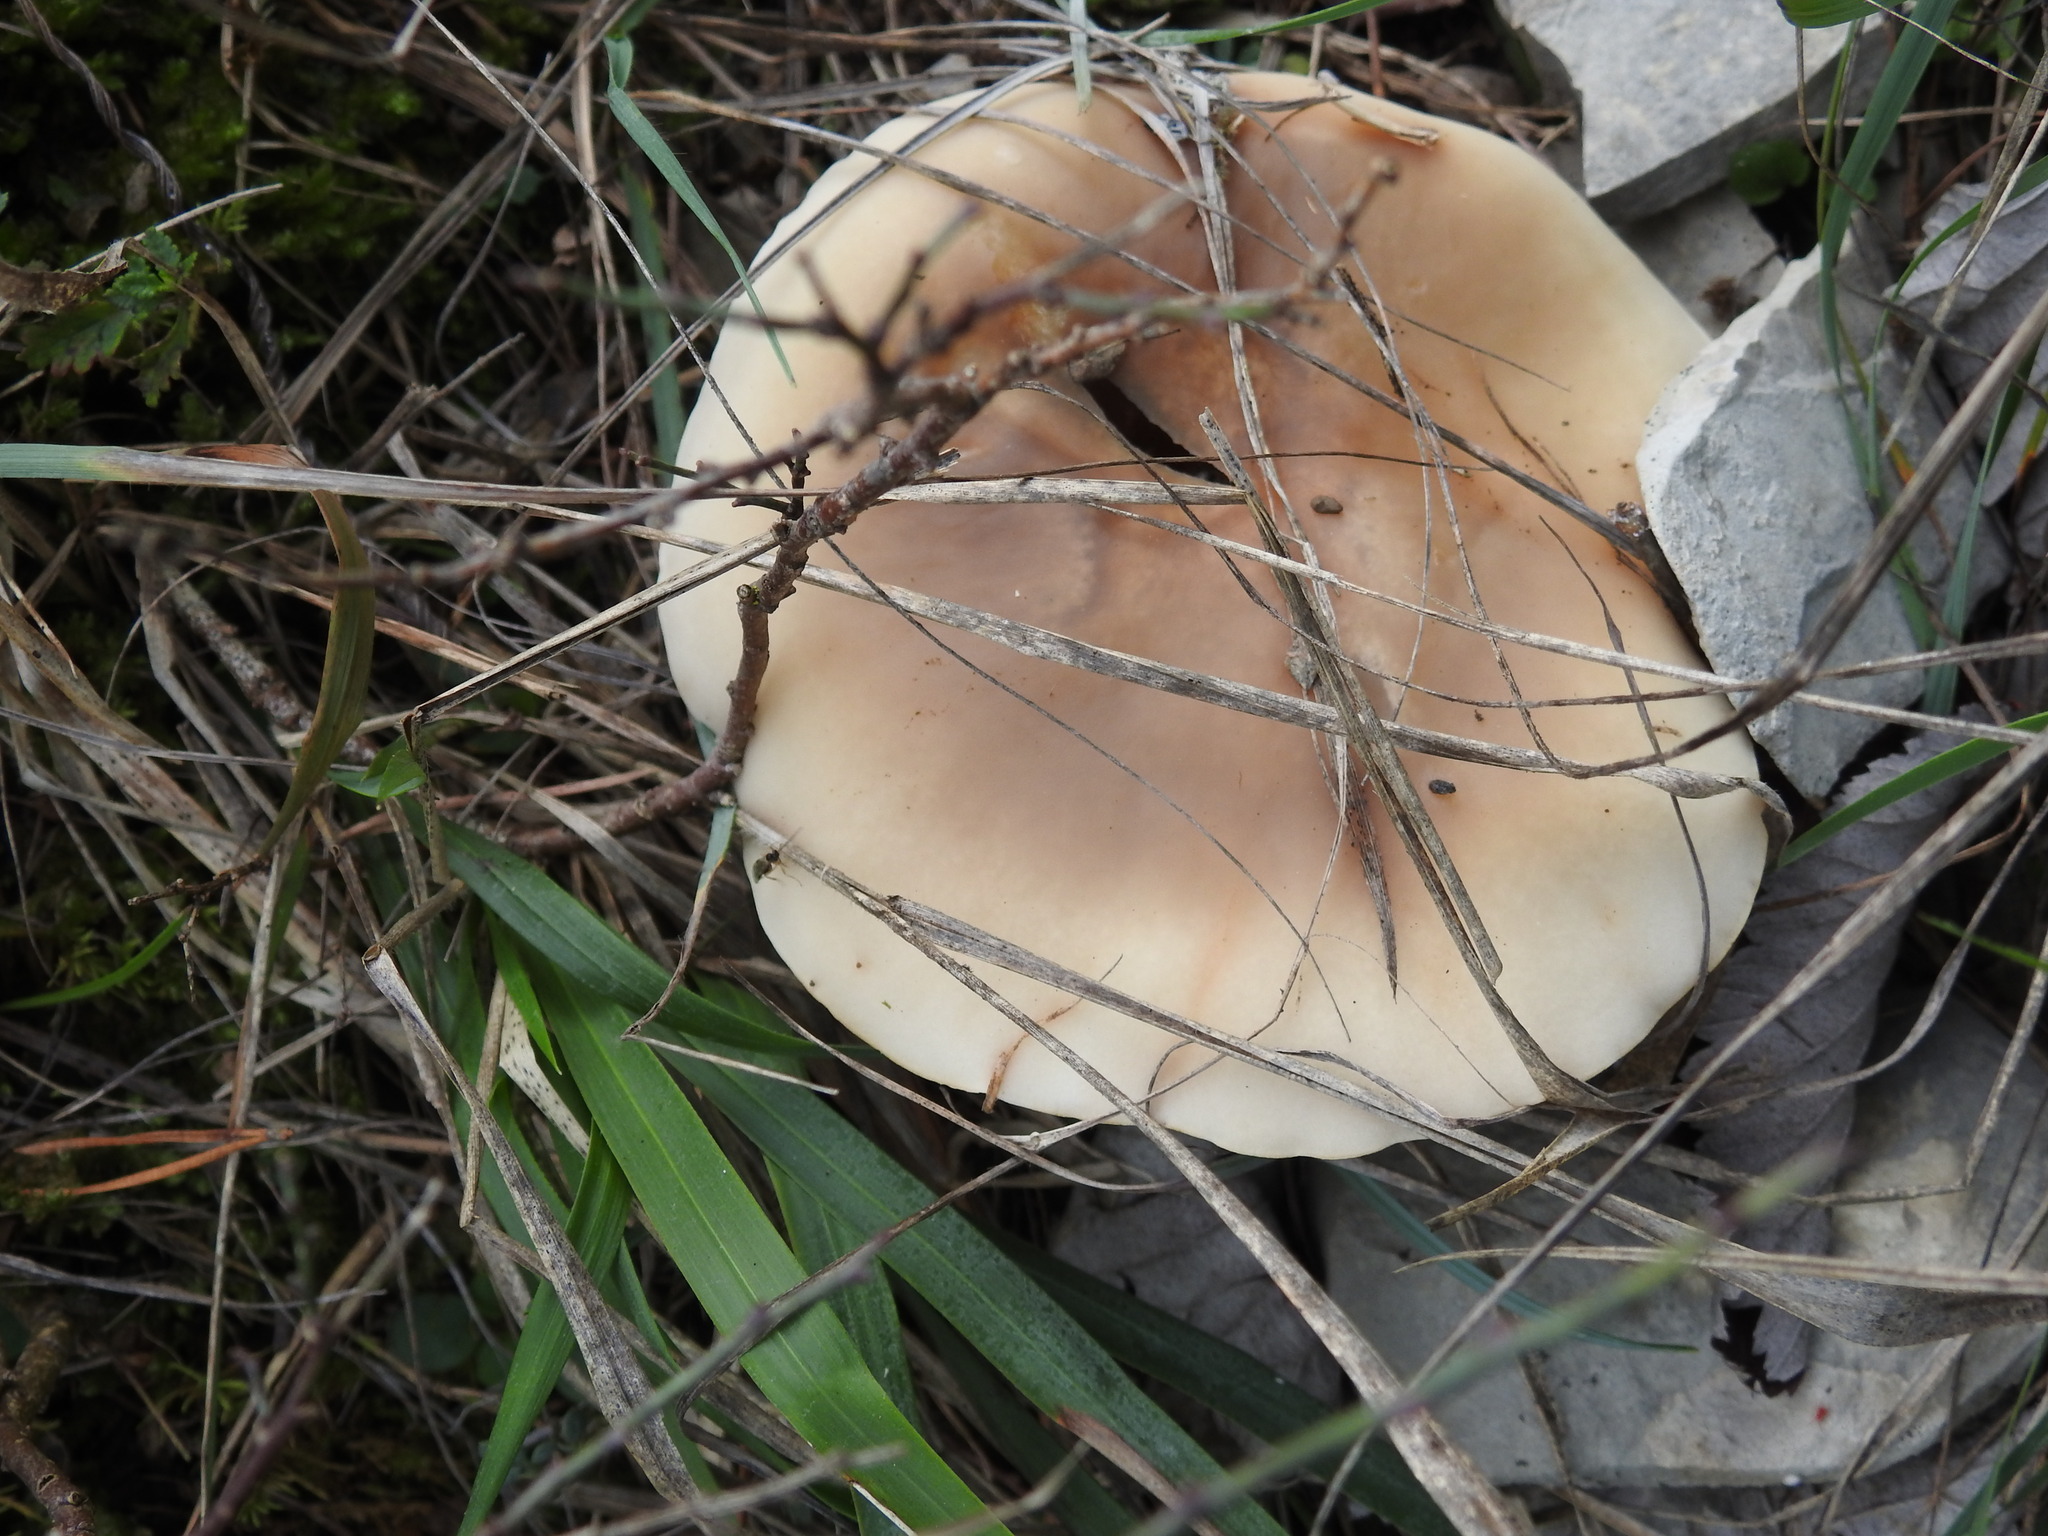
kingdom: Fungi
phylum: Basidiomycota
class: Agaricomycetes
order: Agaricales
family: Omphalotaceae
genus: Collybiopsis
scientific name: Collybiopsis peronata
